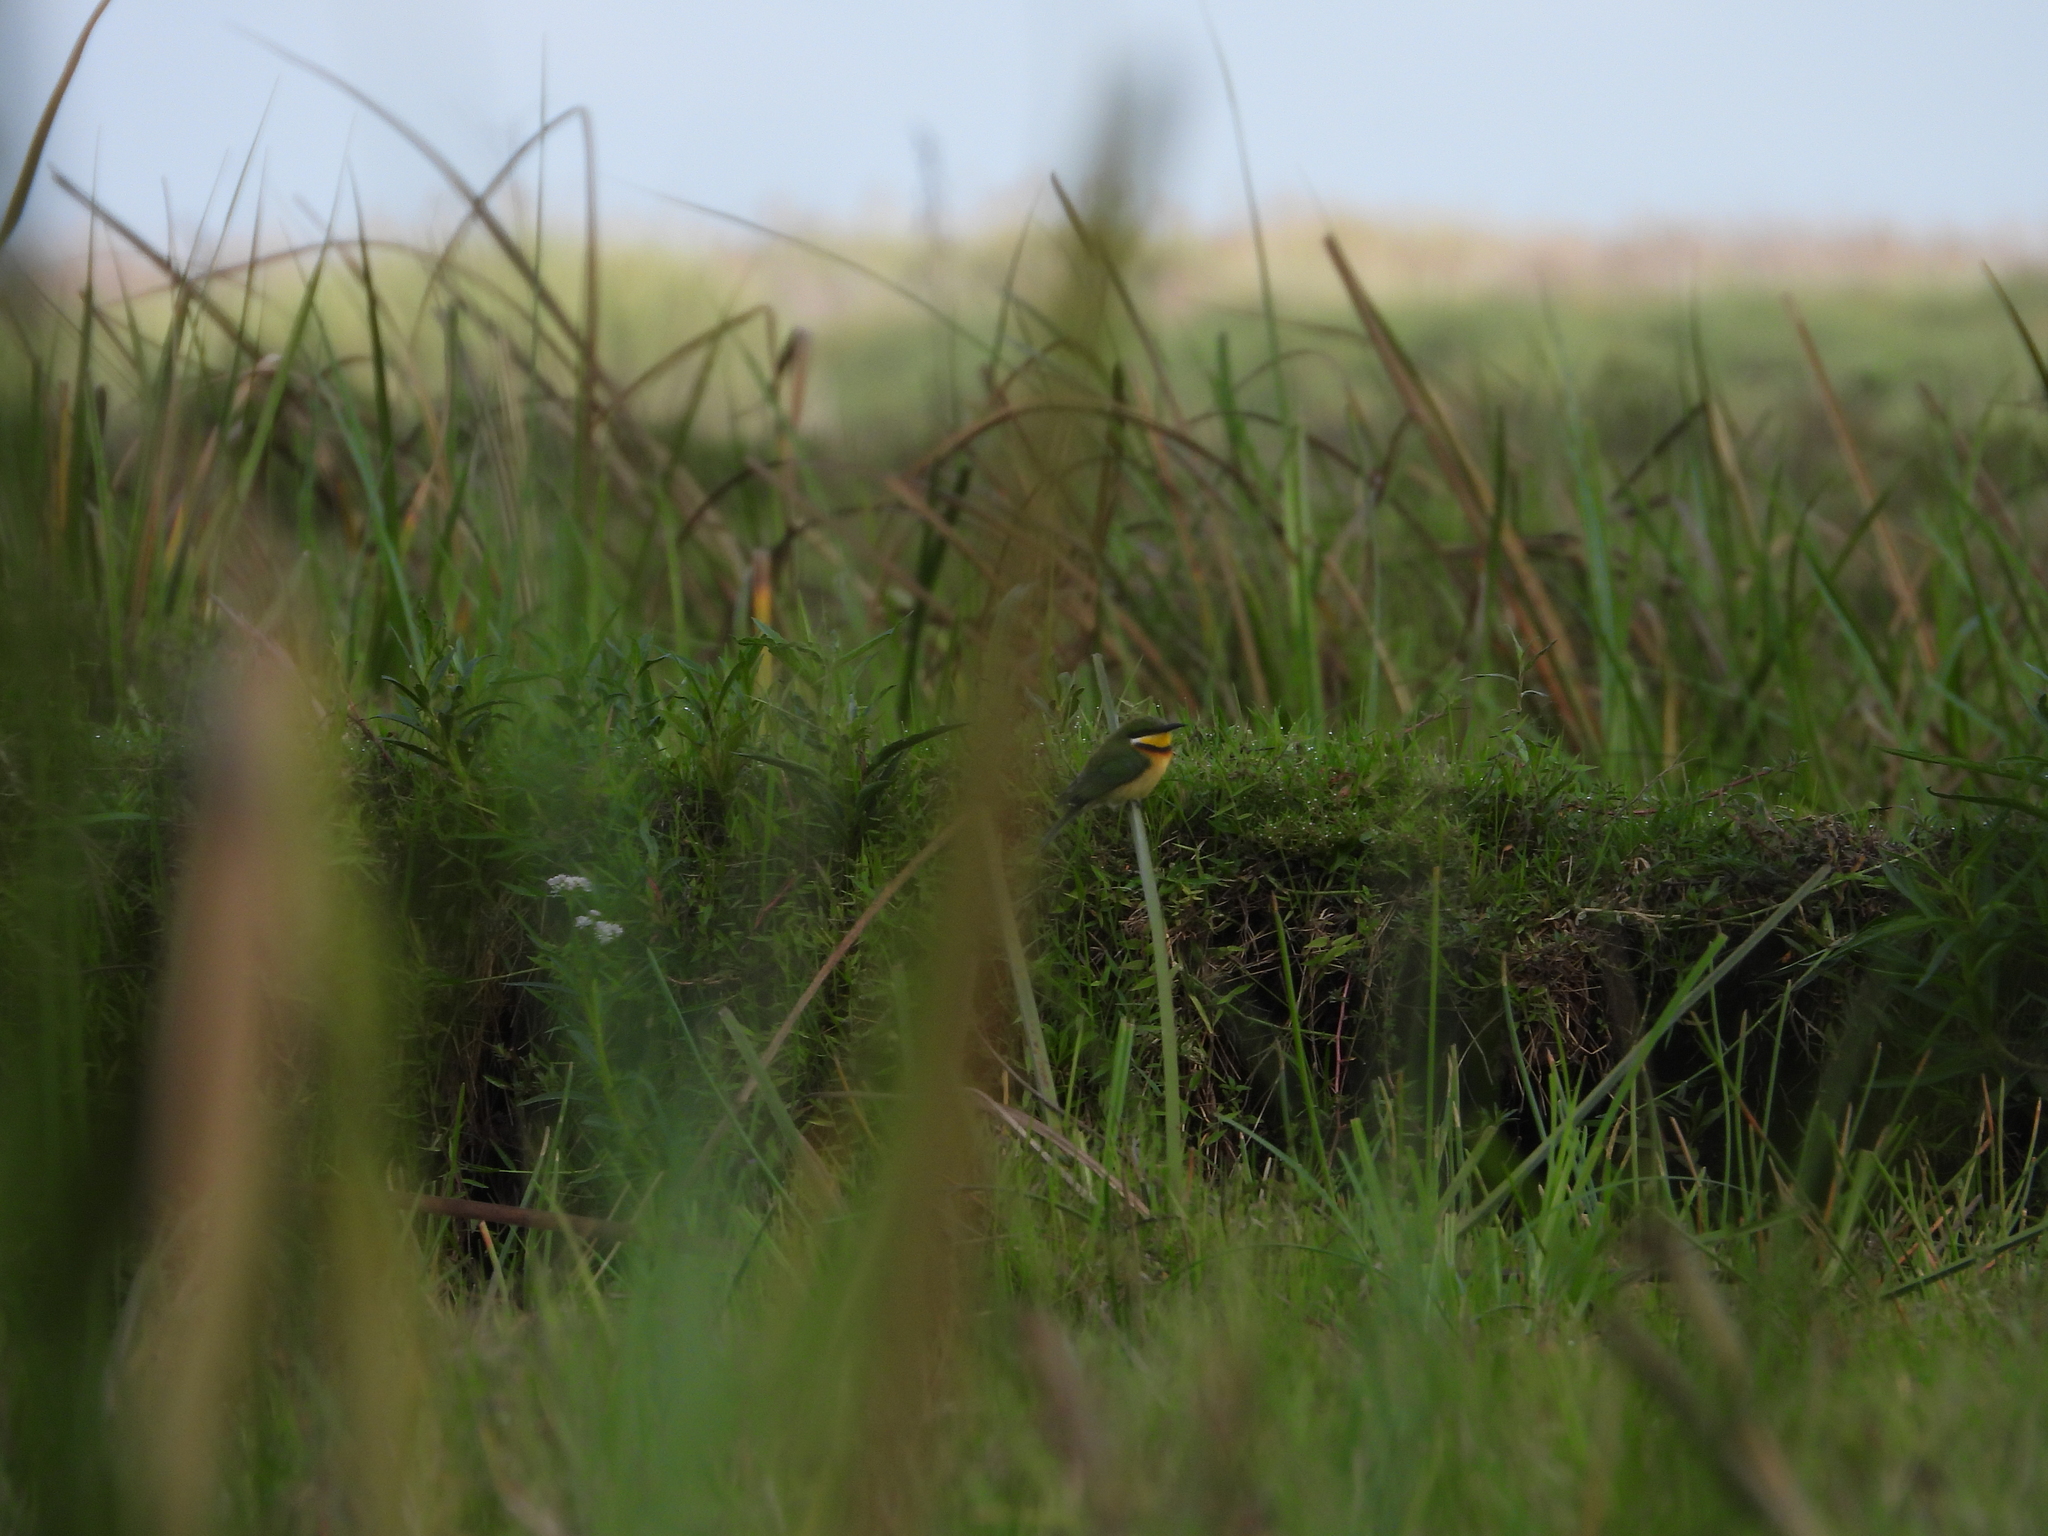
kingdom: Animalia
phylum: Chordata
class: Aves
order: Coraciiformes
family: Meropidae
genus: Merops
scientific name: Merops variegatus
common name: Blue-breasted bee-eater
